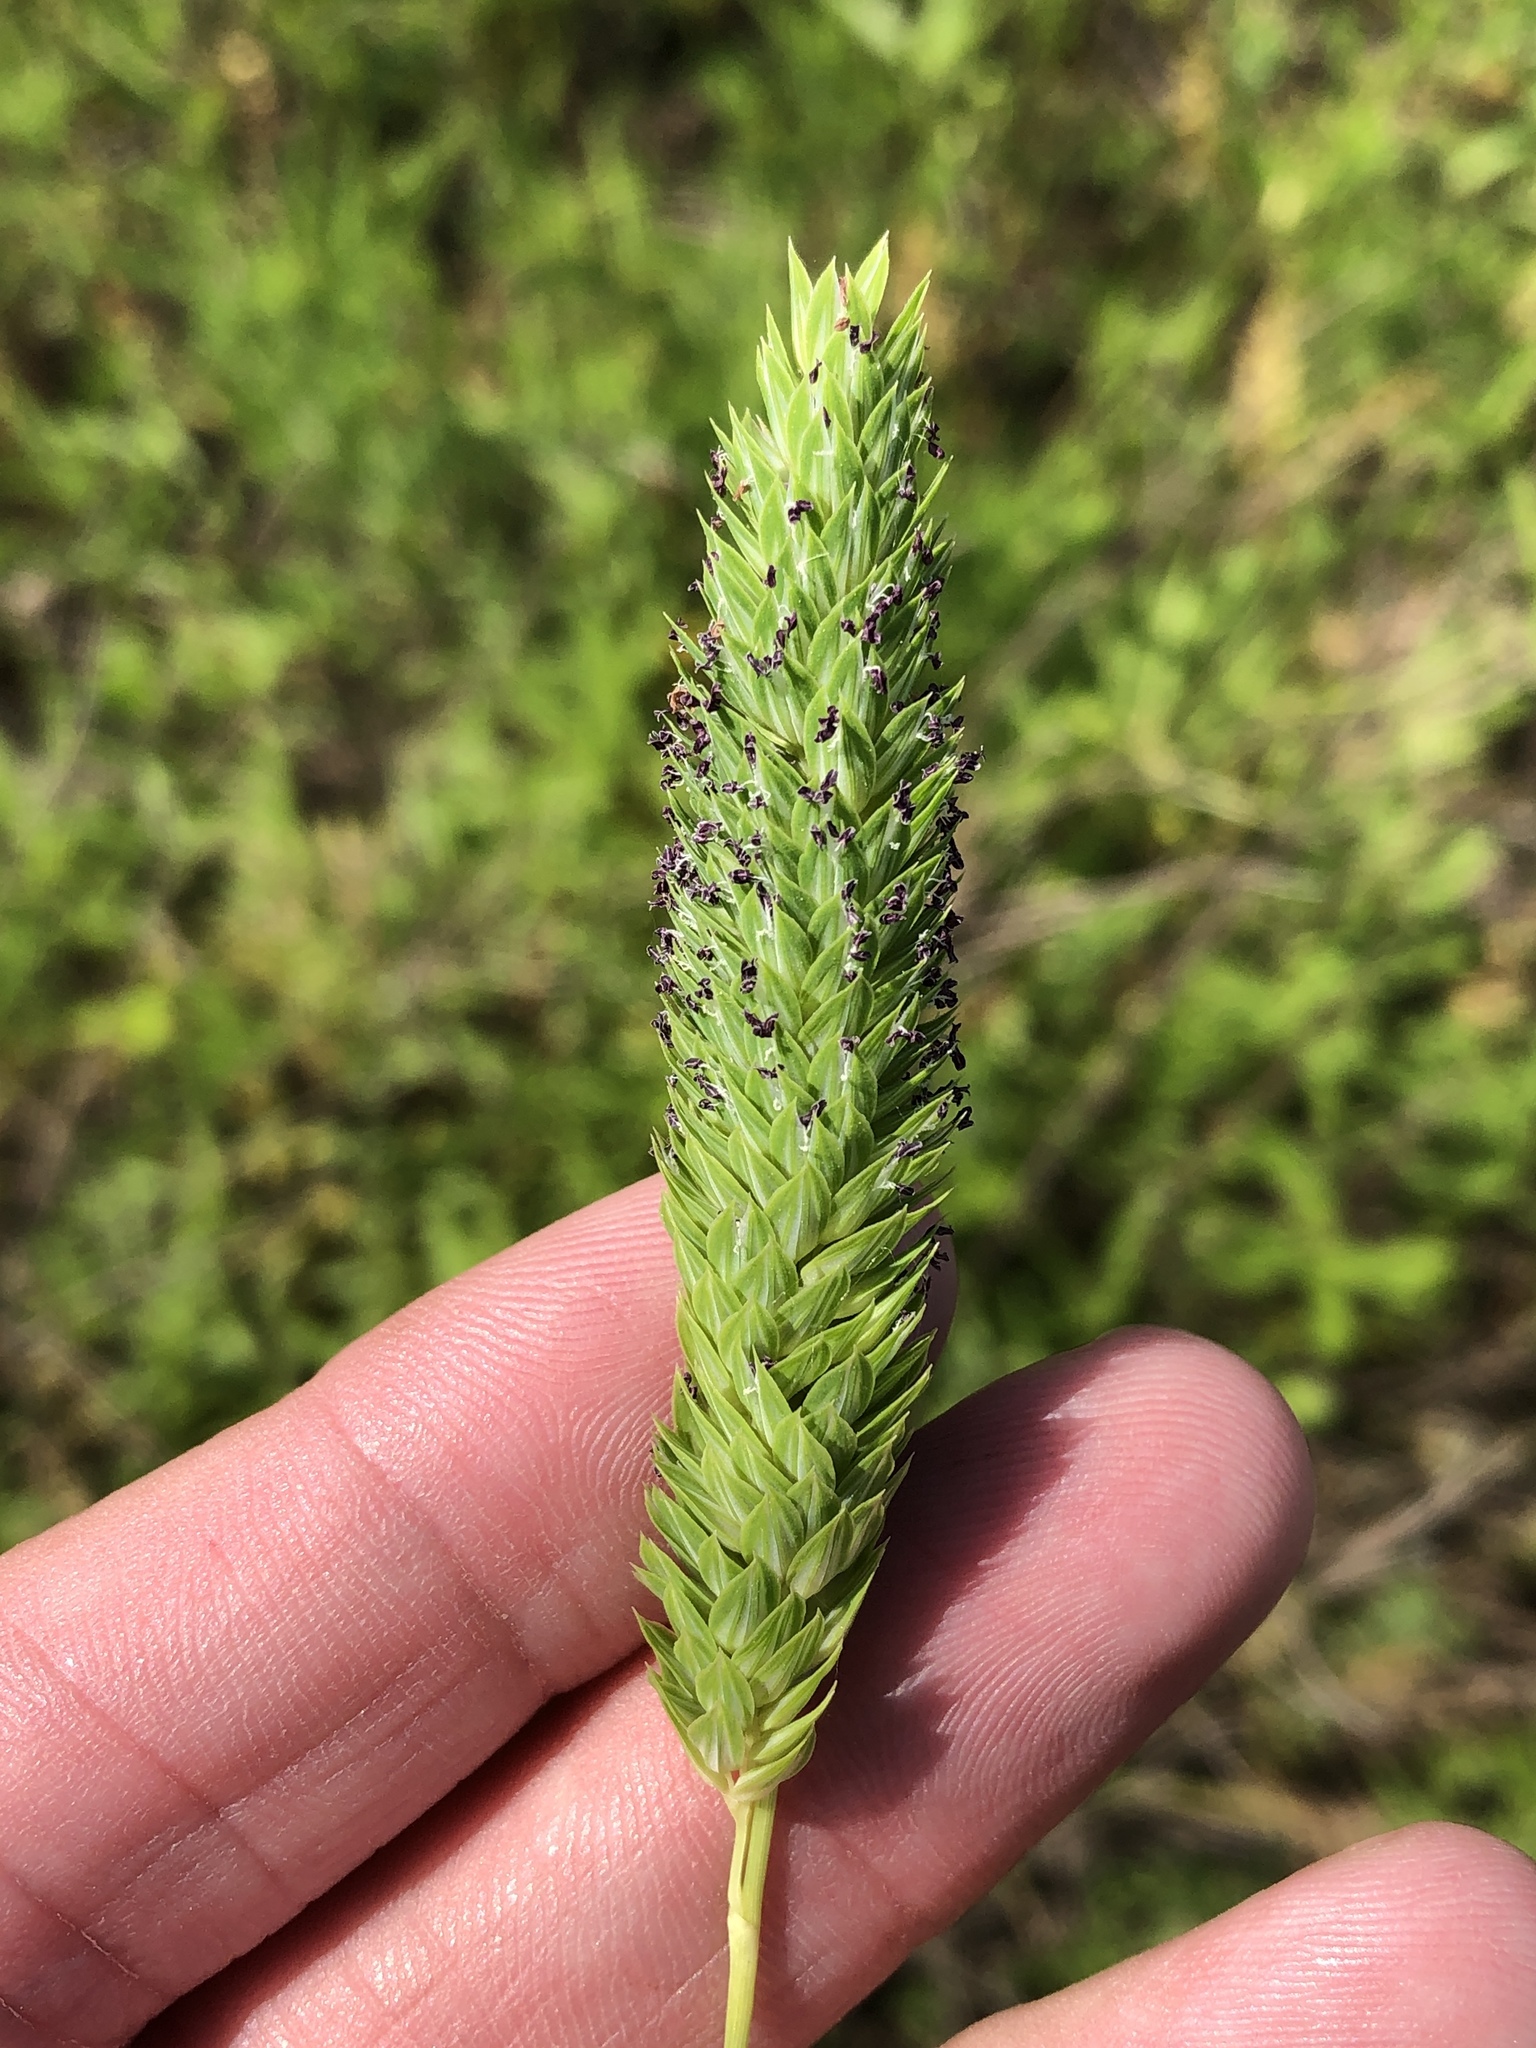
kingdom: Plantae
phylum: Tracheophyta
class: Liliopsida
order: Poales
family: Poaceae
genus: Phalaris
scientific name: Phalaris caroliniana
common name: May grass
